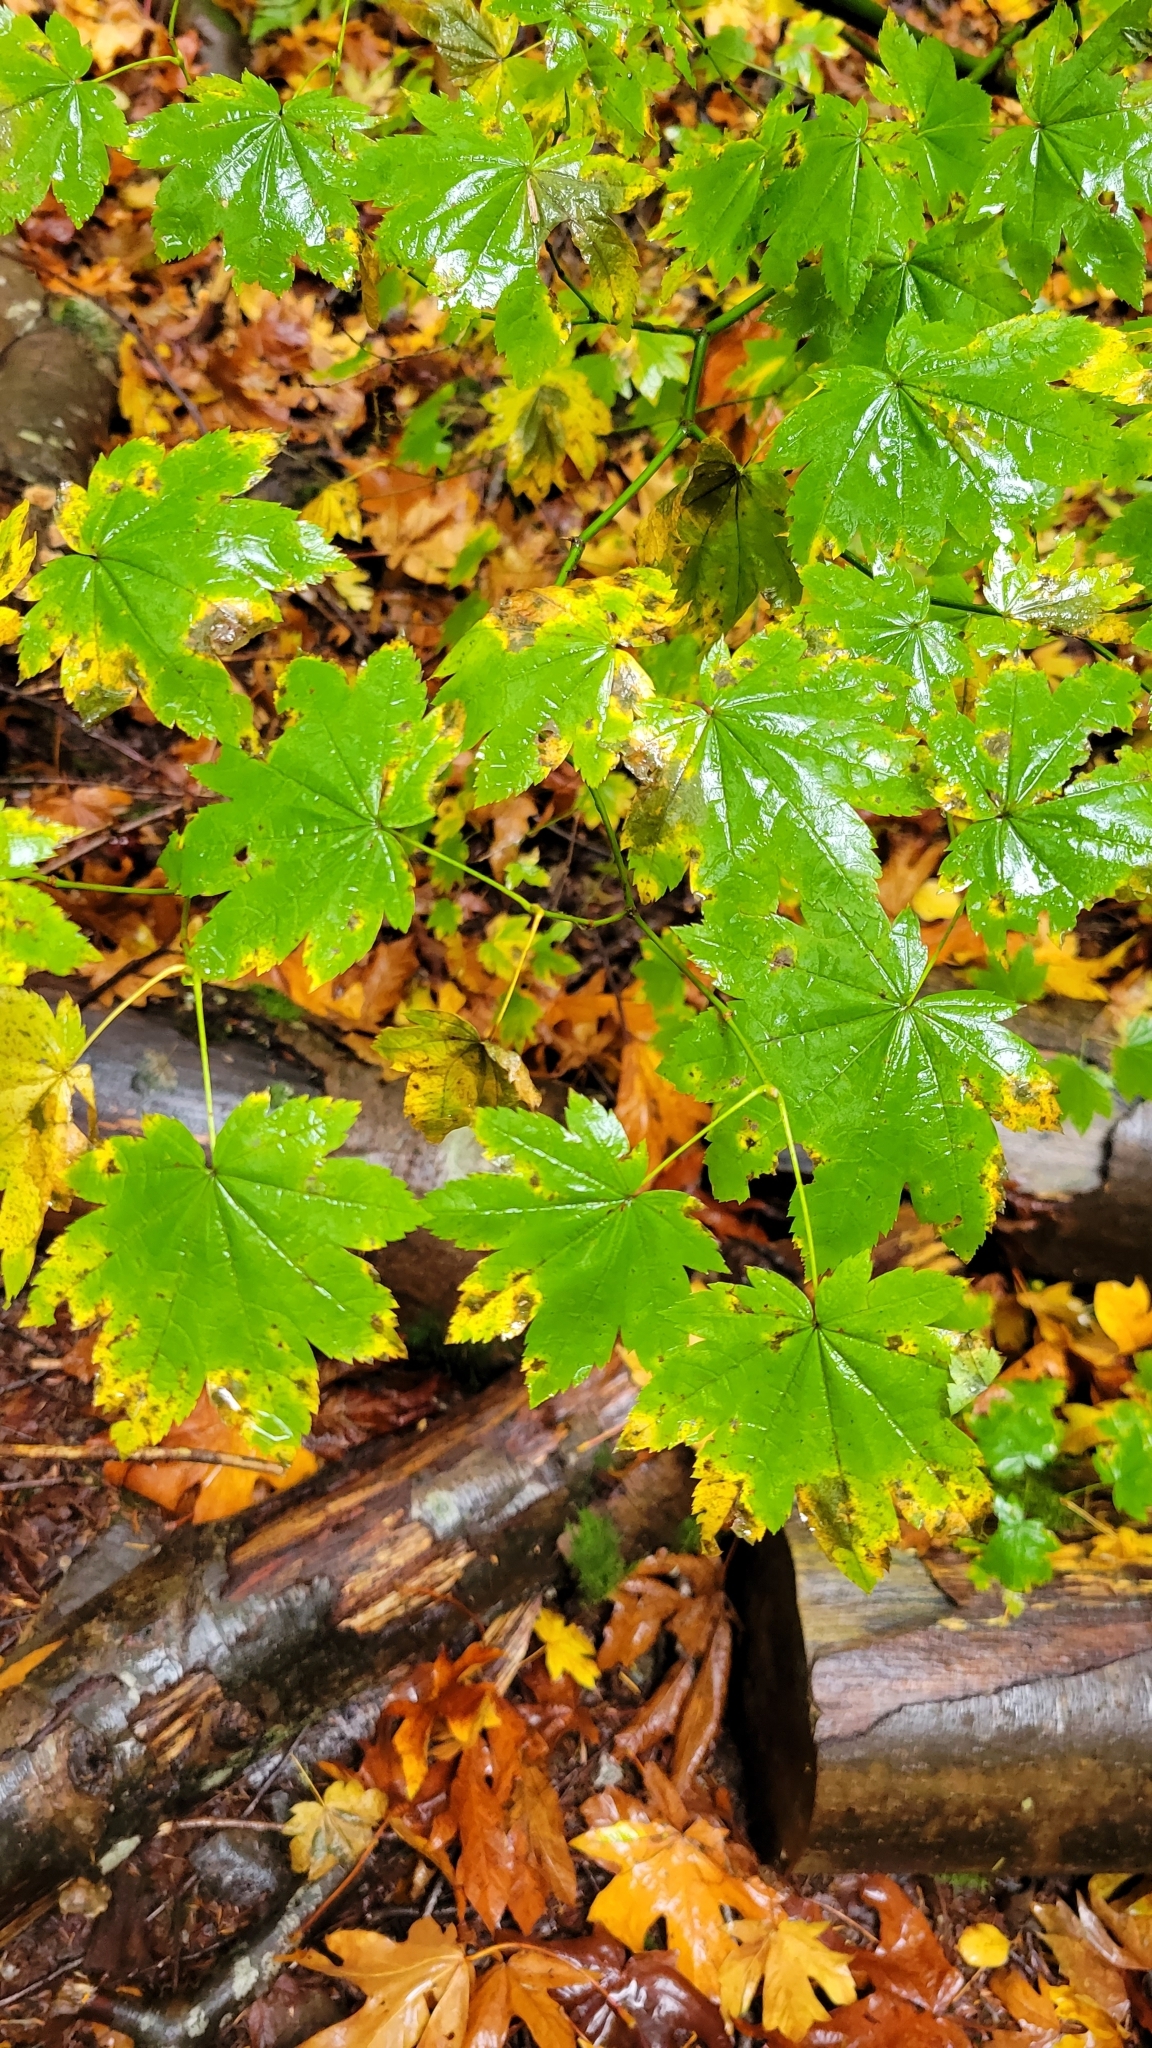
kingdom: Plantae
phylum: Tracheophyta
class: Magnoliopsida
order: Sapindales
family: Sapindaceae
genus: Acer
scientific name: Acer circinatum
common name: Vine maple
